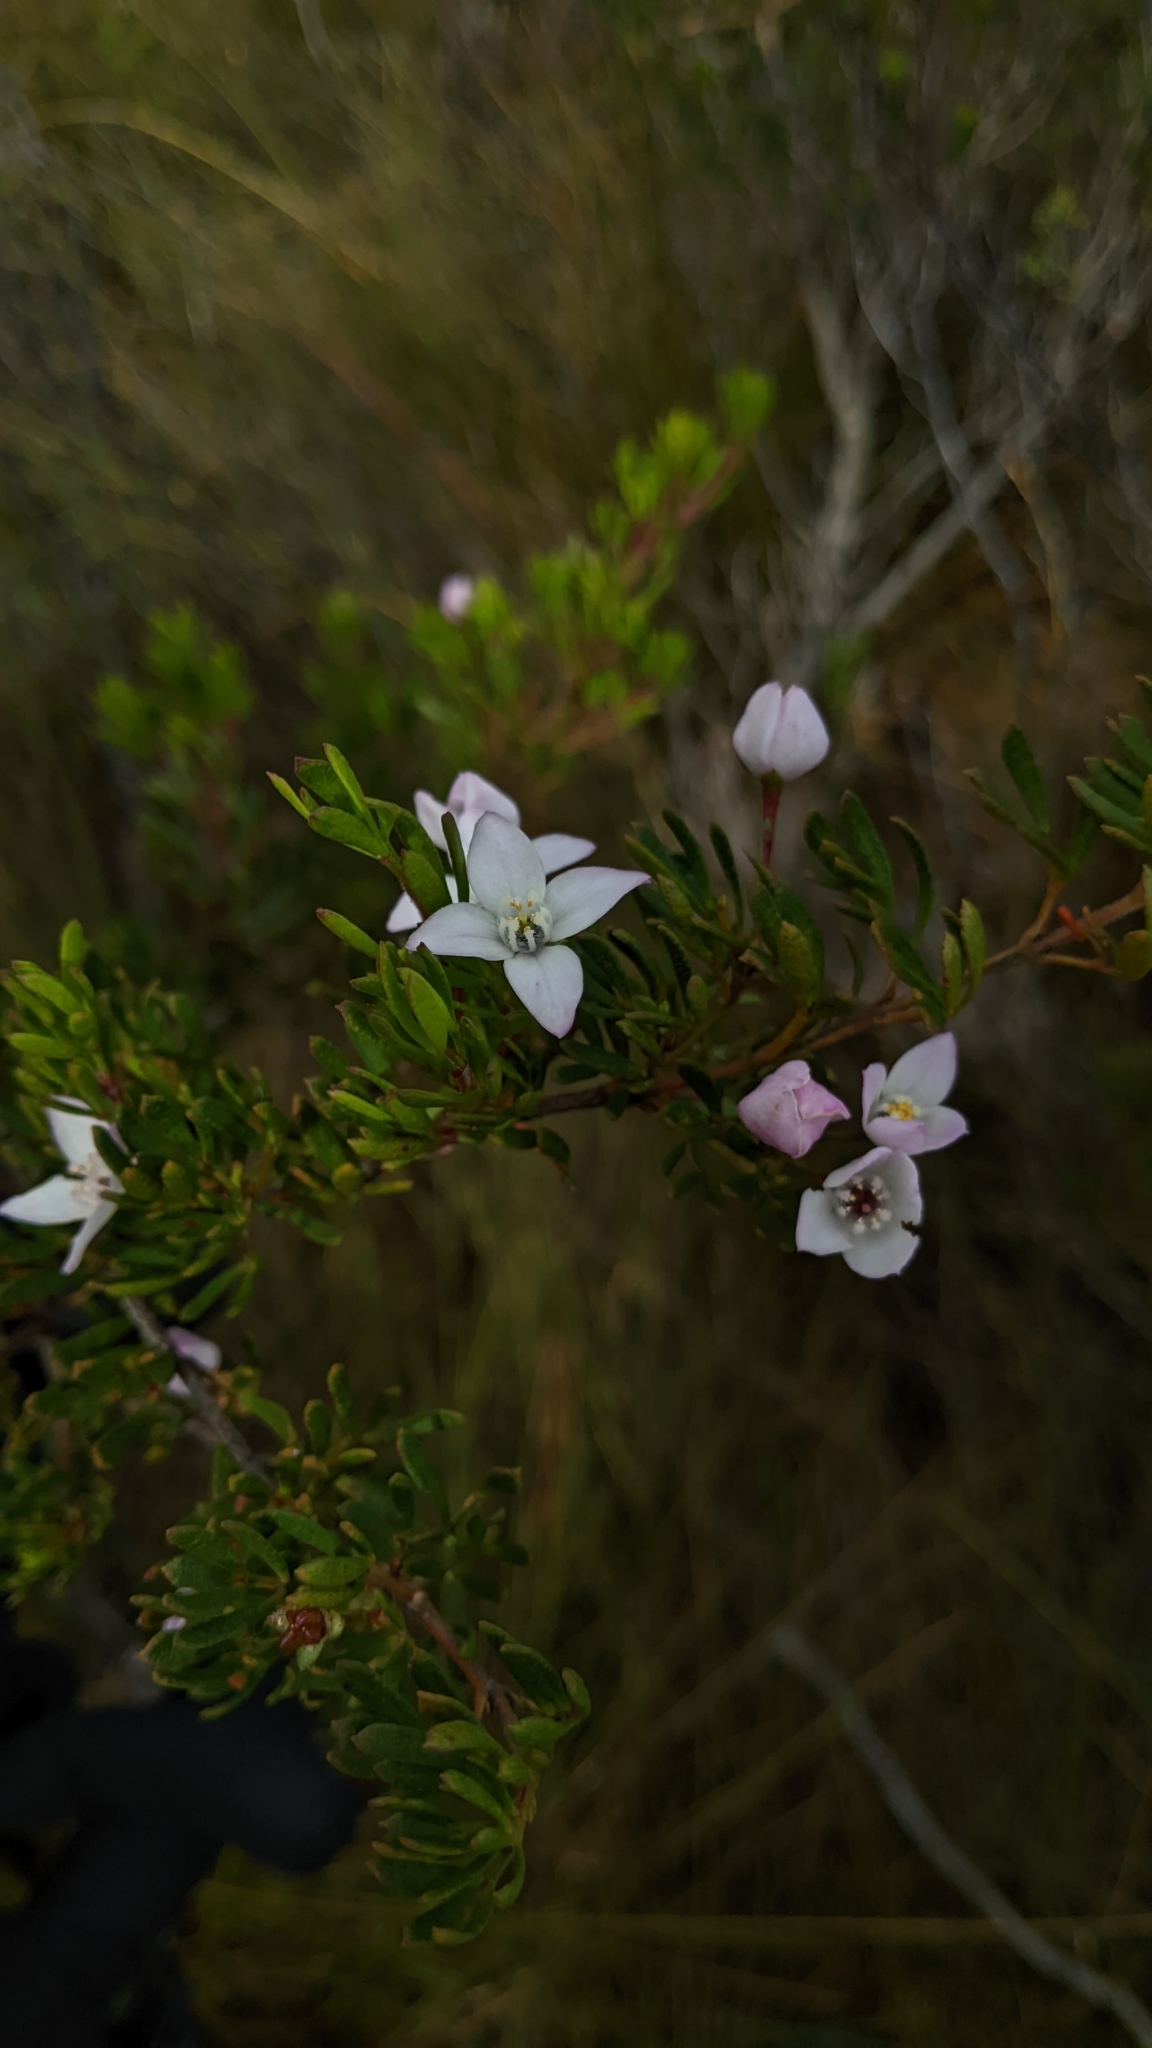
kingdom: Plantae
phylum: Tracheophyta
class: Magnoliopsida
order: Sapindales
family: Rutaceae
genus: Boronia
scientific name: Boronia citriodora
